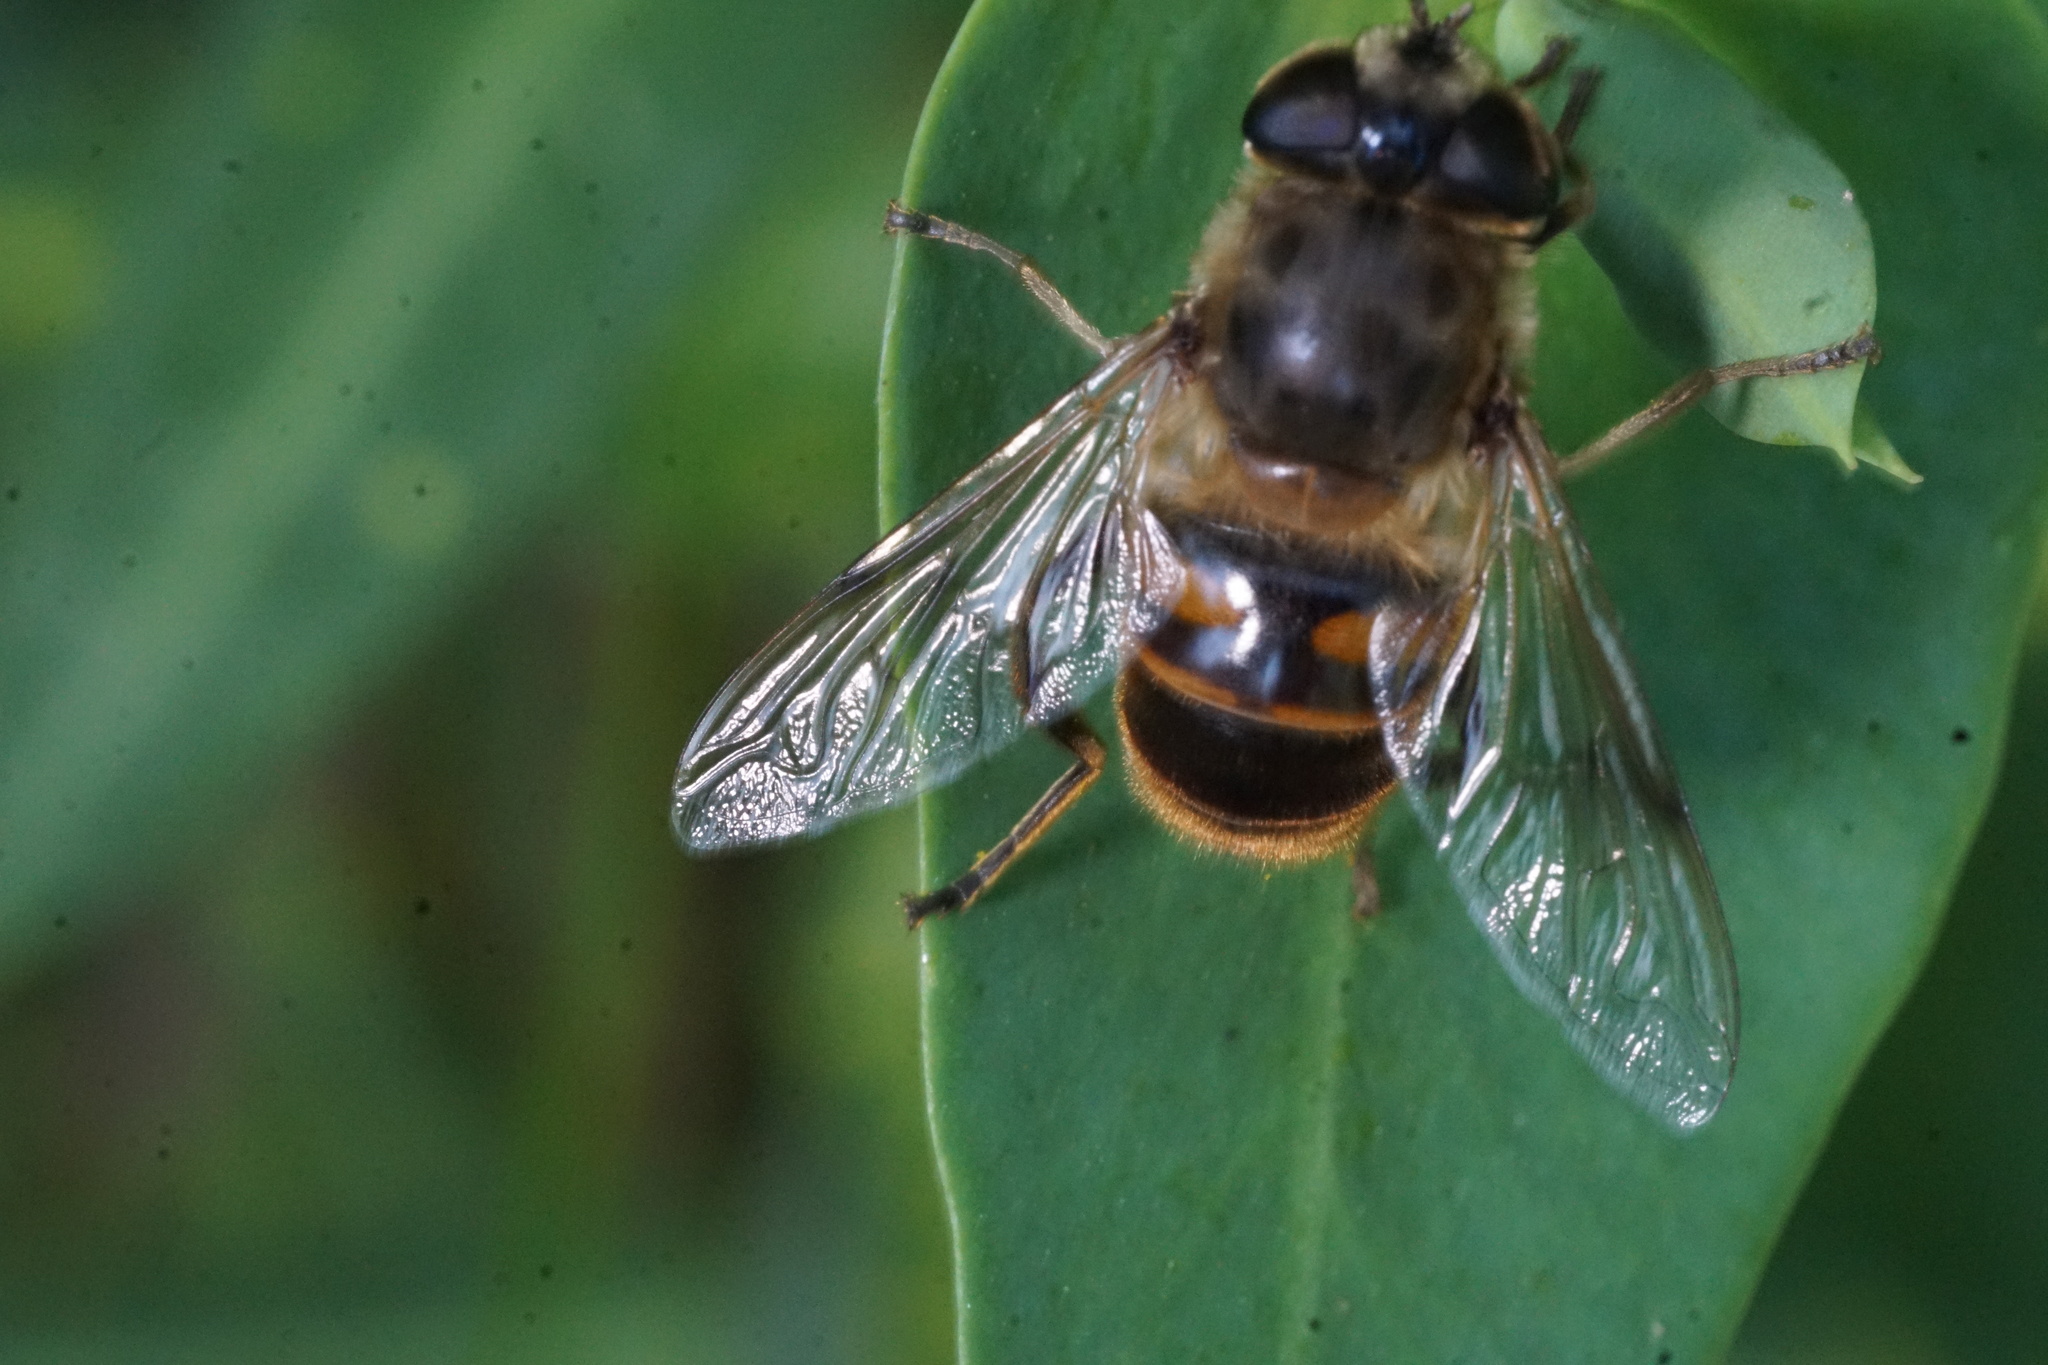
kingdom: Animalia
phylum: Arthropoda
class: Insecta
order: Diptera
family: Syrphidae
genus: Eristalis
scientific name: Eristalis tenax
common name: Drone fly
